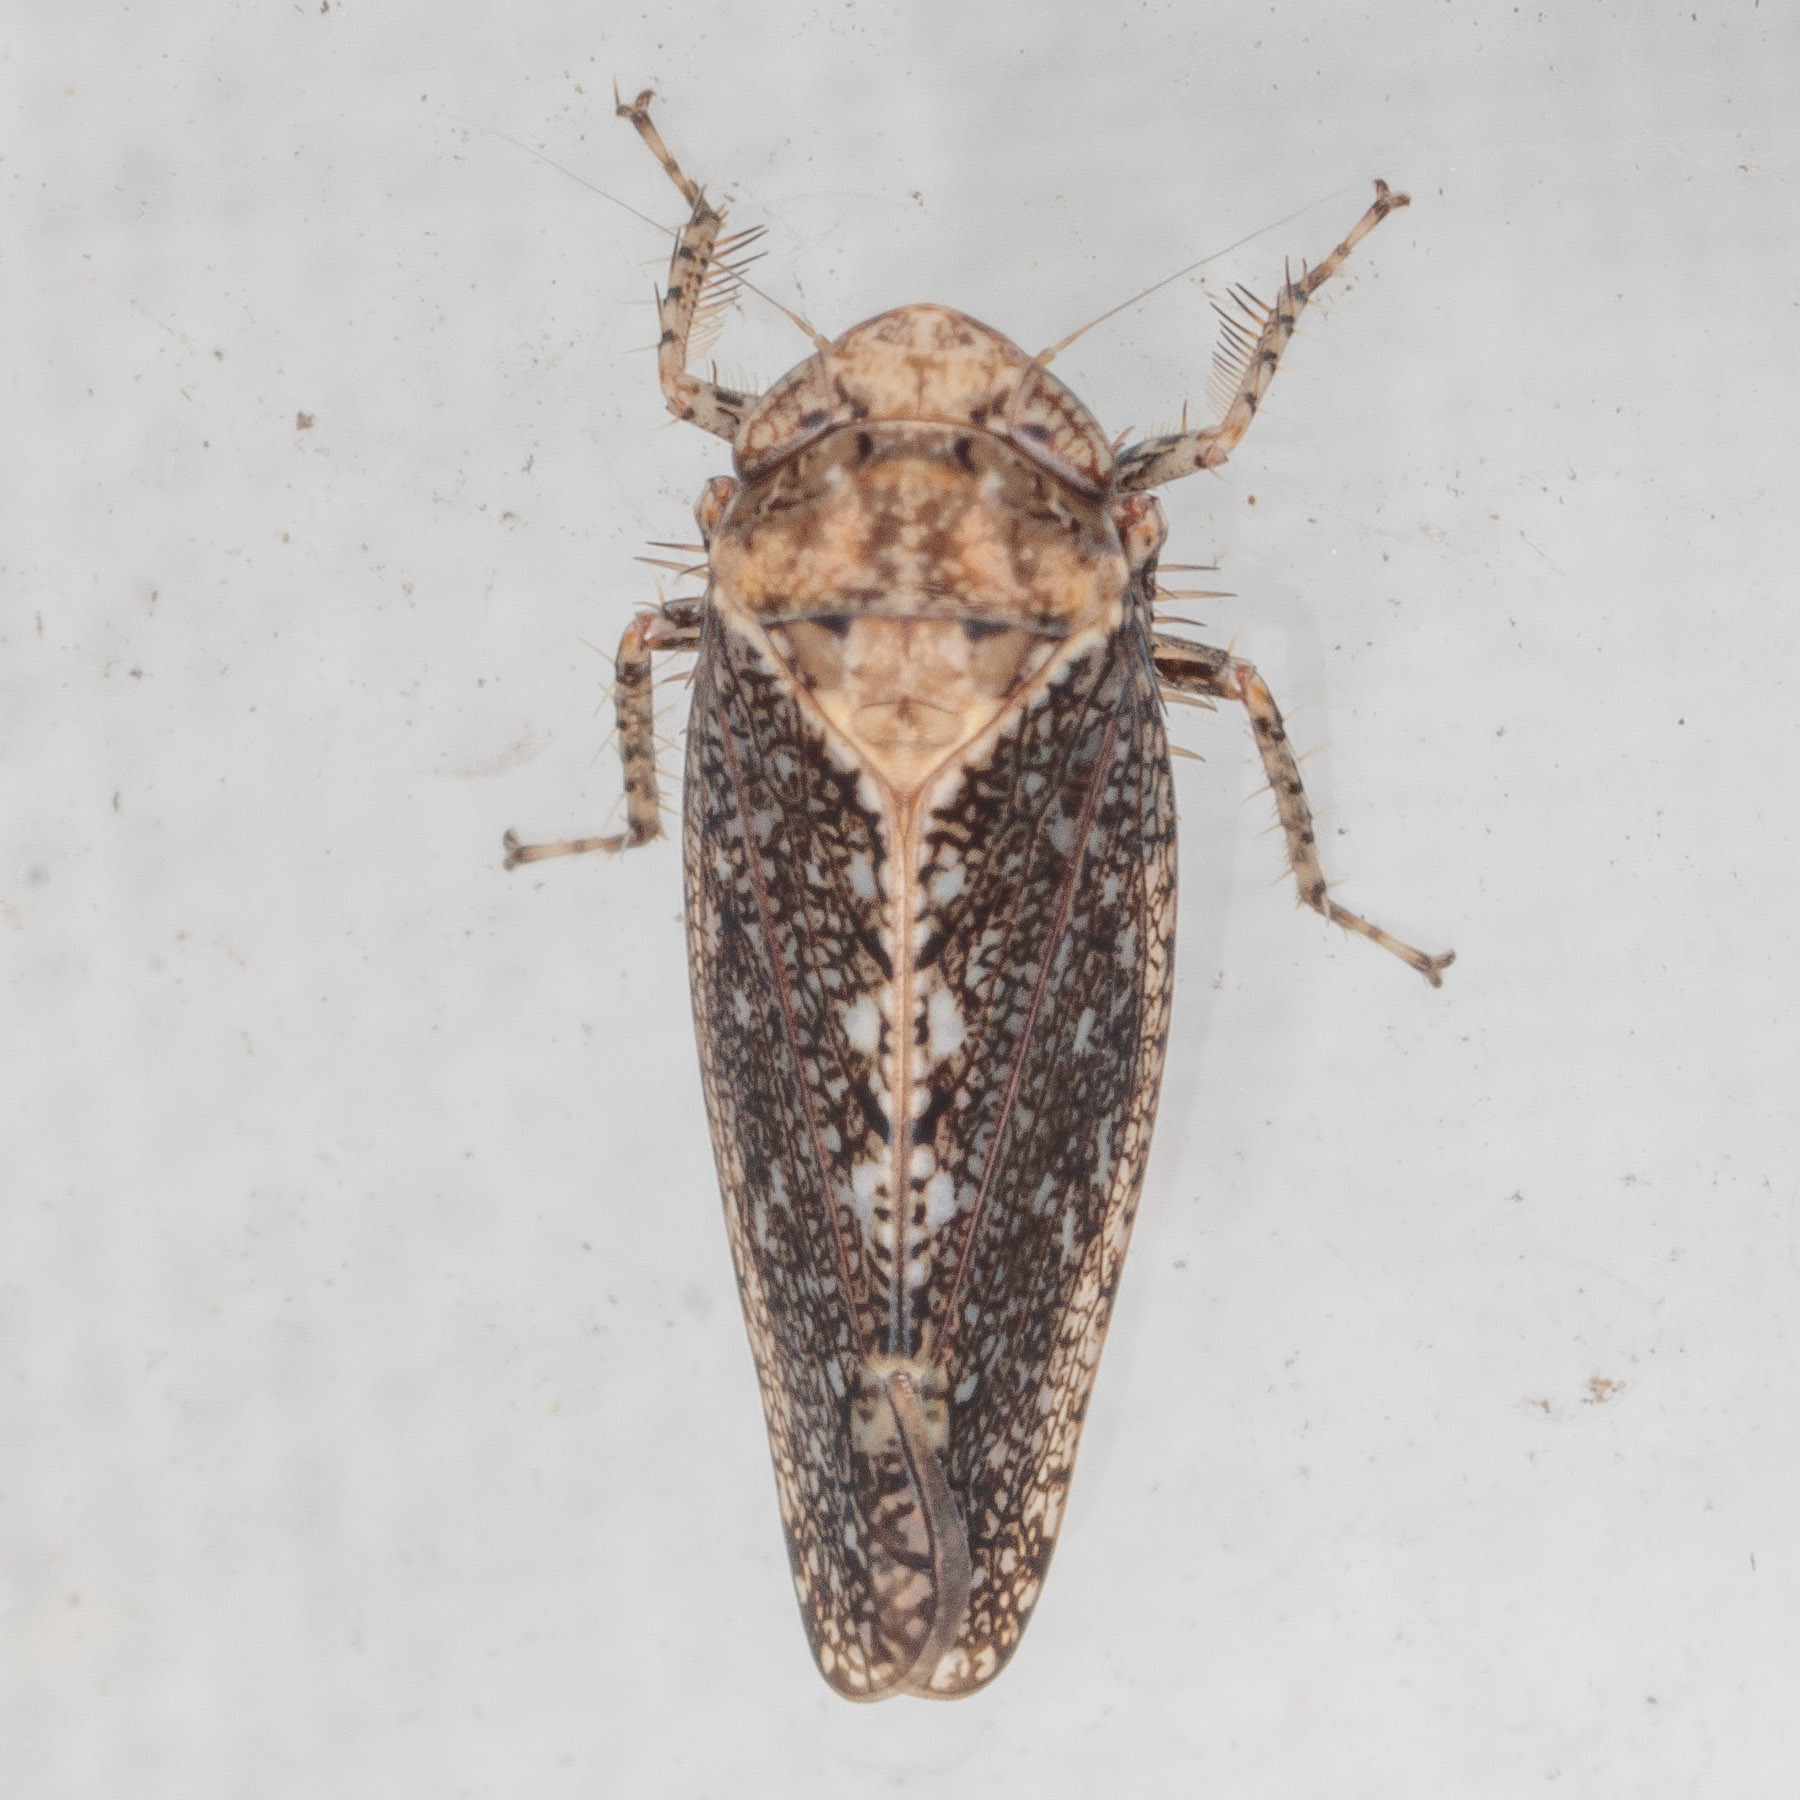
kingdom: Animalia
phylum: Arthropoda
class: Insecta
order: Hemiptera
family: Cicadellidae
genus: Excultanus
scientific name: Excultanus excultus
